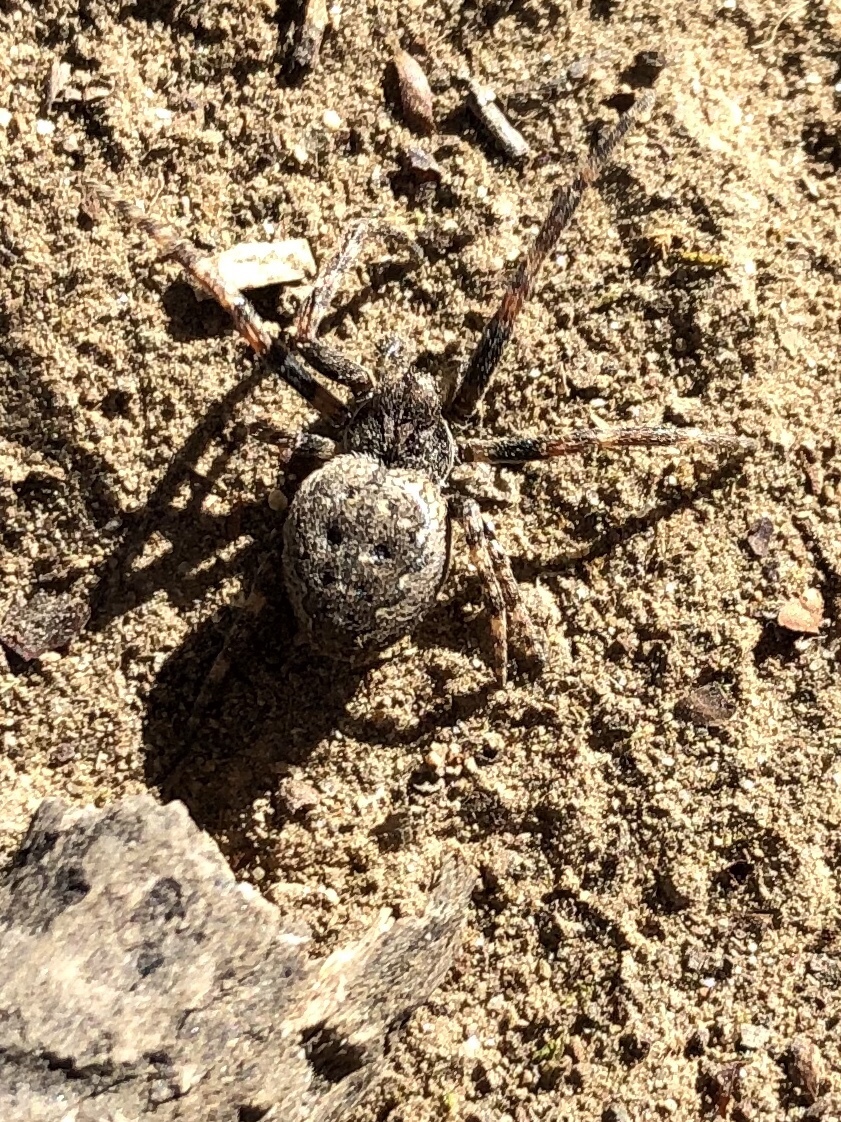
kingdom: Animalia
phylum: Arthropoda
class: Arachnida
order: Araneae
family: Araneidae
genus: Nuctenea
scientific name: Nuctenea umbratica
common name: Toad spider
